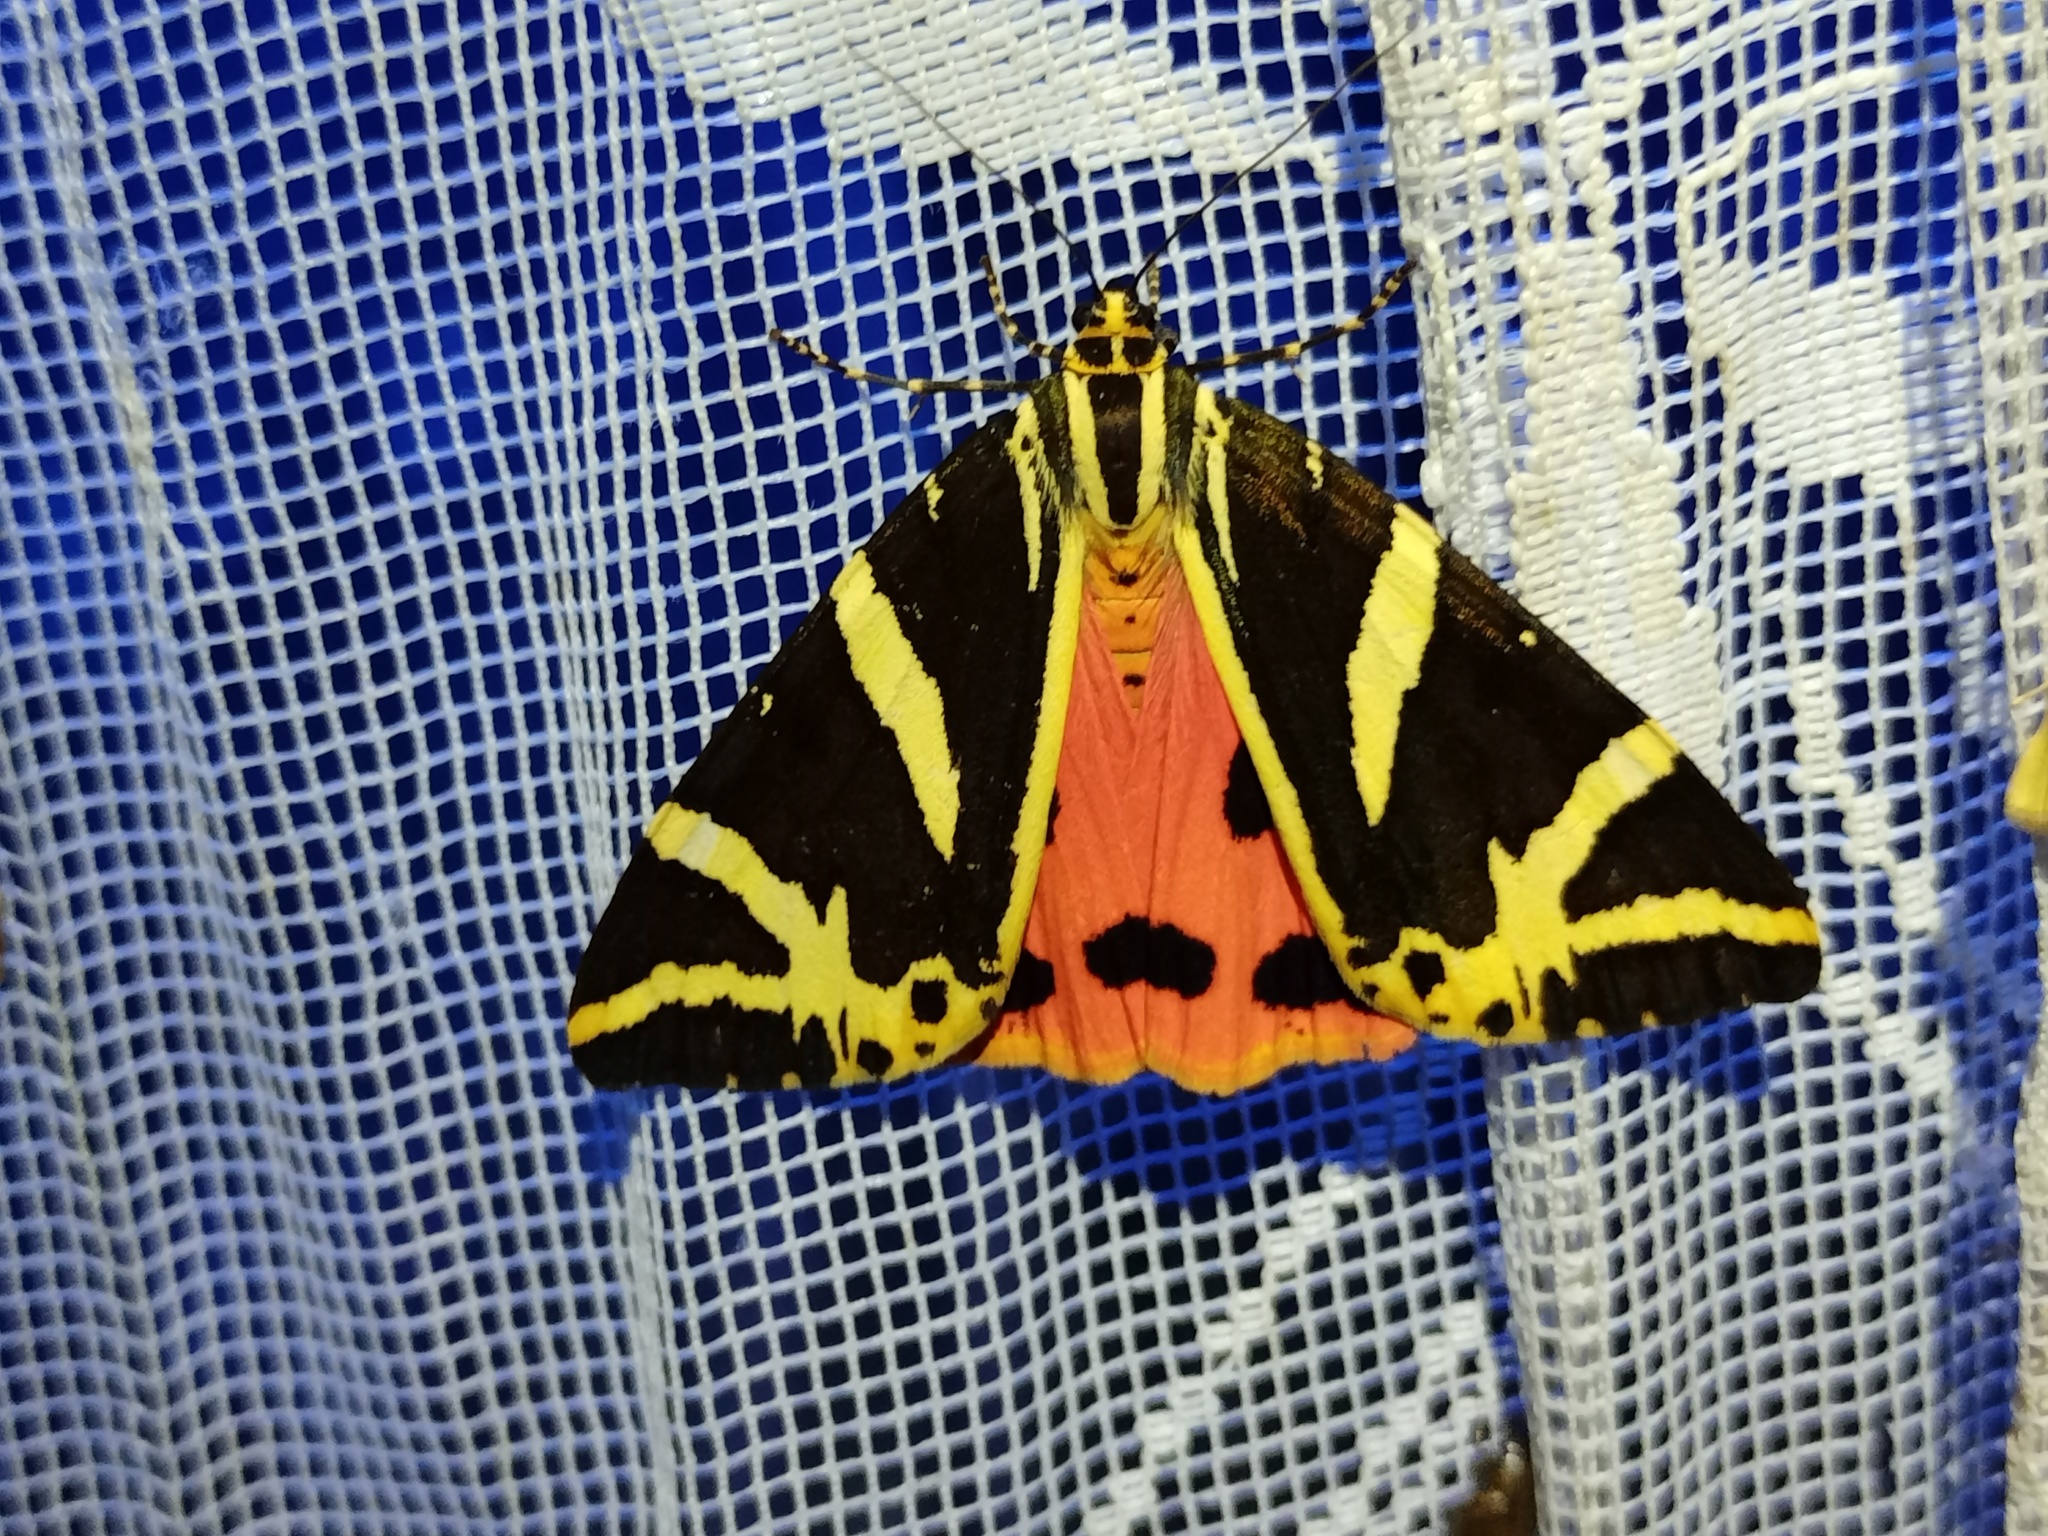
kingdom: Animalia
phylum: Arthropoda
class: Insecta
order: Lepidoptera
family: Erebidae
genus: Euplagia
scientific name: Euplagia quadripunctaria
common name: Jersey tiger
